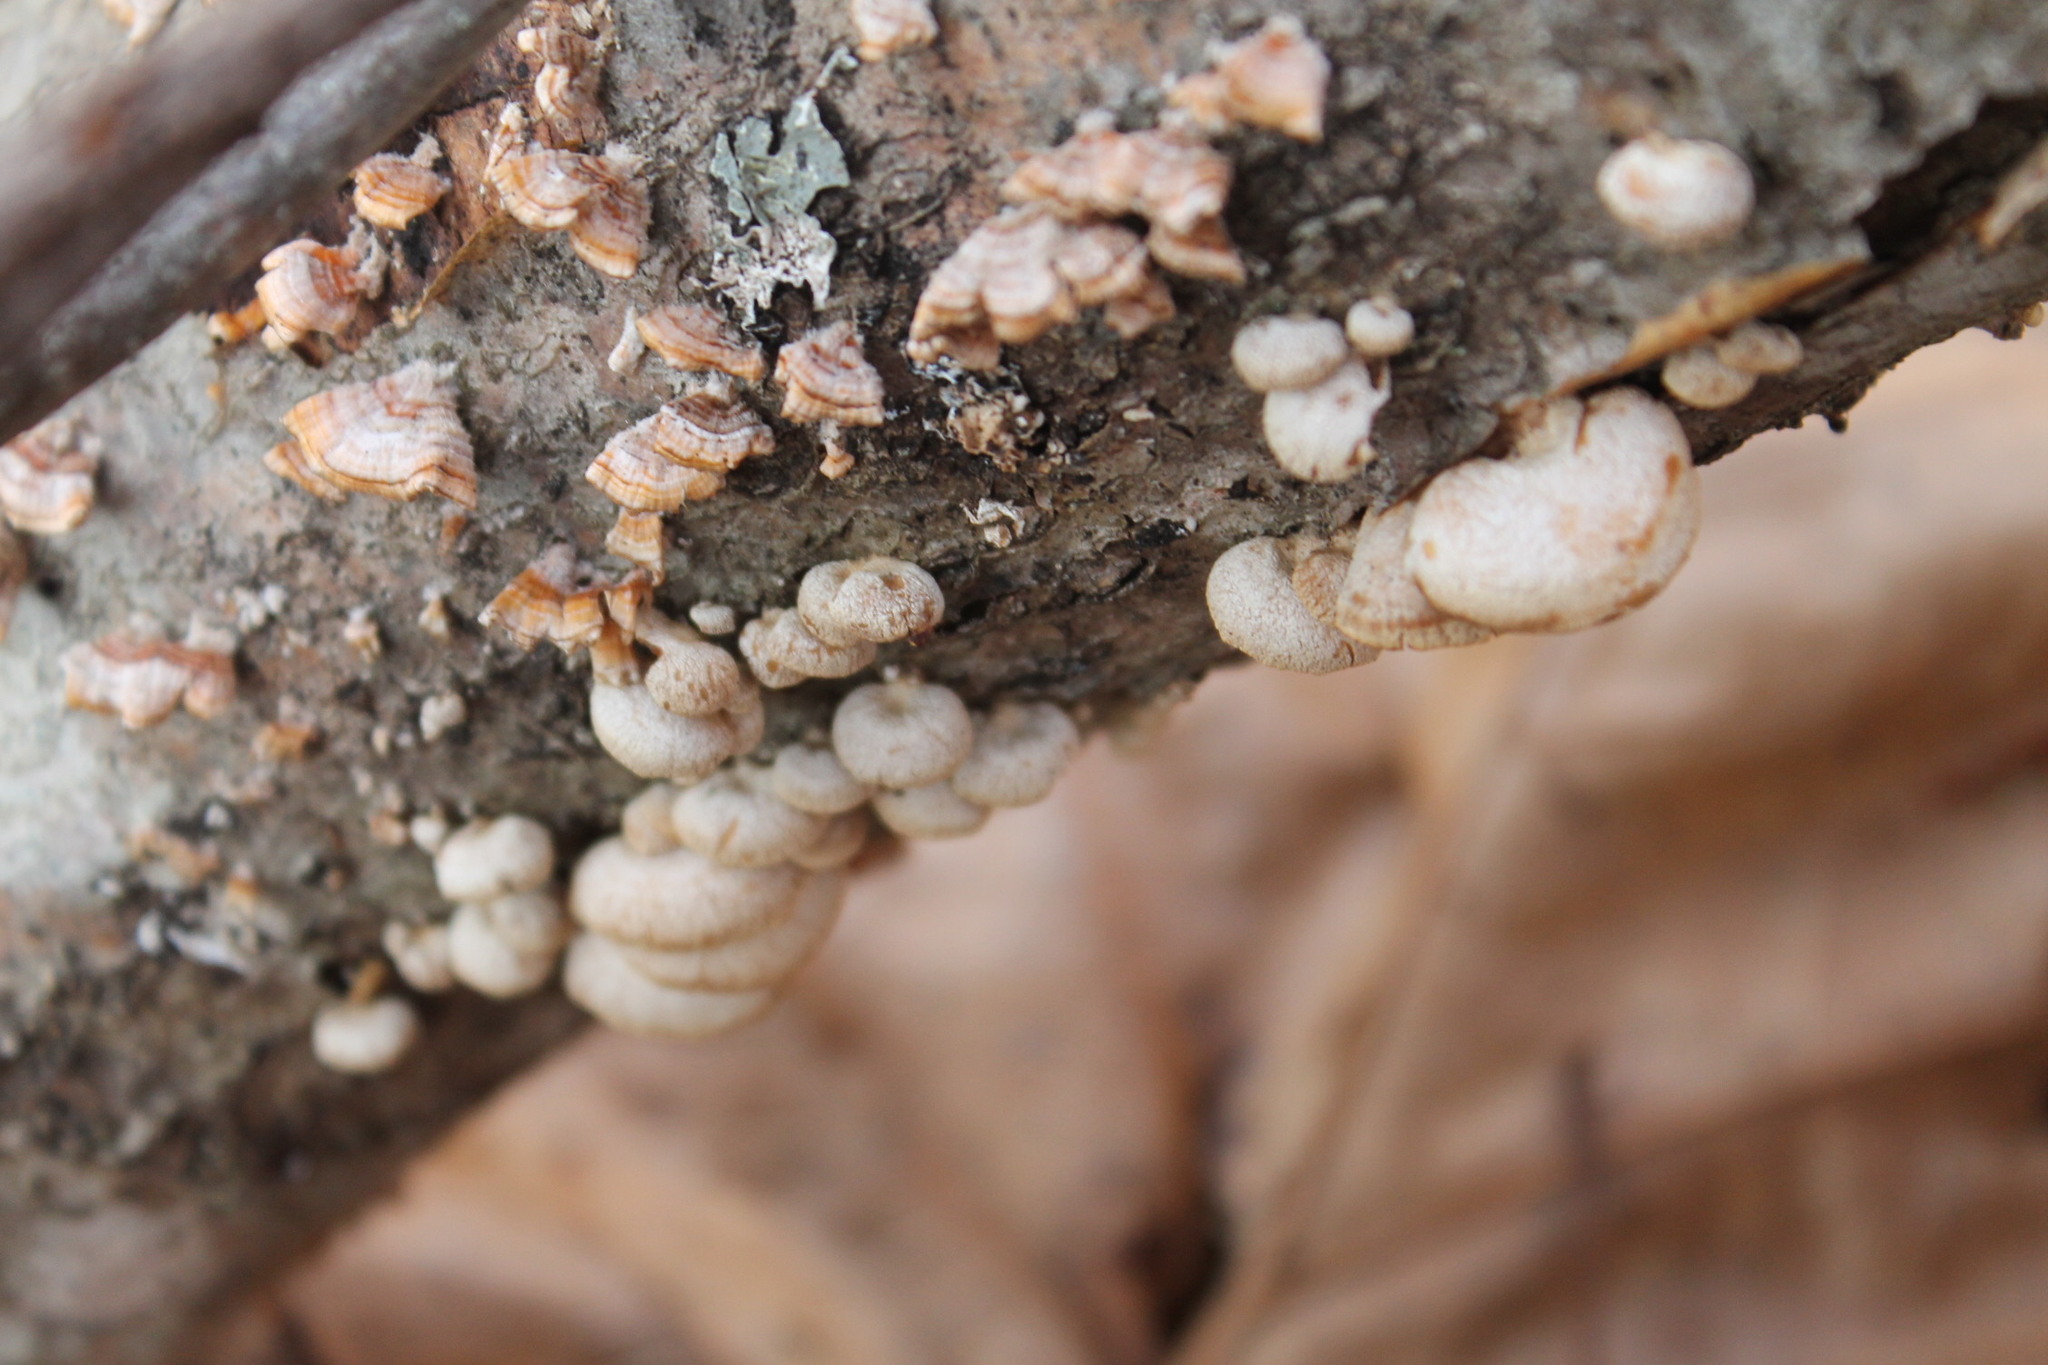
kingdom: Fungi
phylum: Basidiomycota
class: Agaricomycetes
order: Agaricales
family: Mycenaceae
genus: Panellus
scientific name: Panellus stipticus
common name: Bitter oysterling
